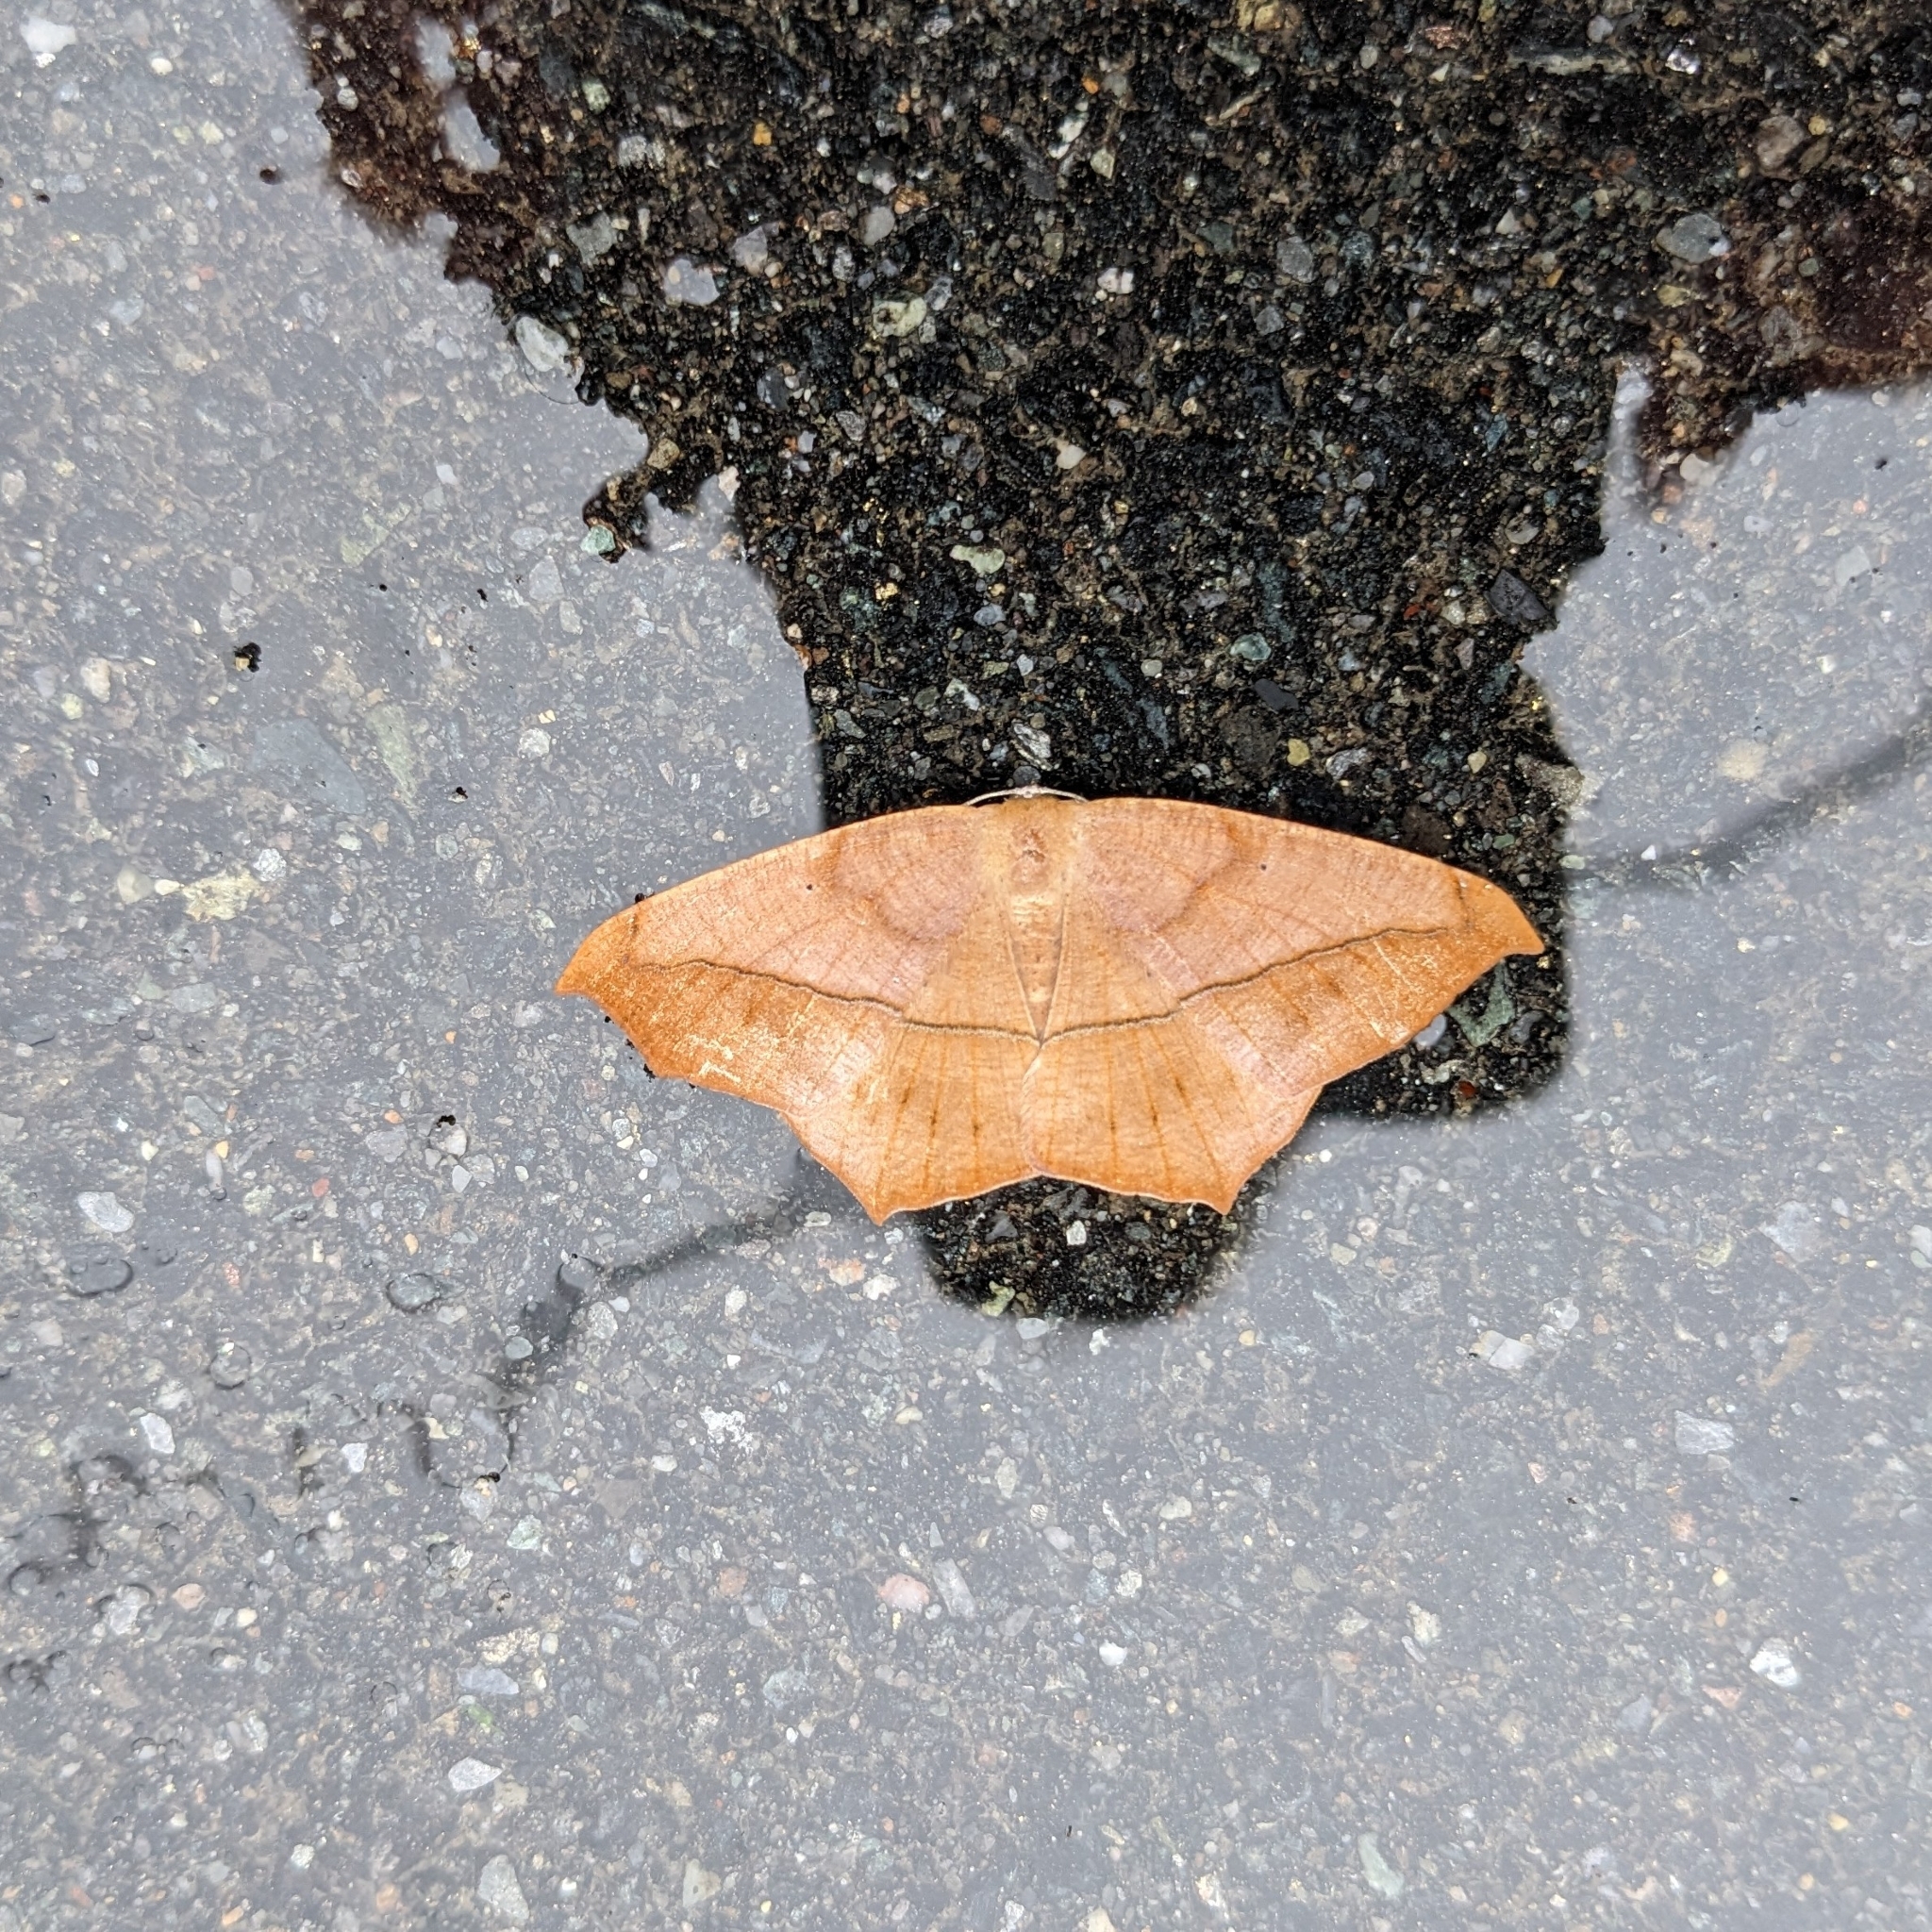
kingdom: Animalia
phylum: Arthropoda
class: Insecta
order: Lepidoptera
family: Geometridae
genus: Prochoerodes
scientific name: Prochoerodes lineola
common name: Large maple spanworm
